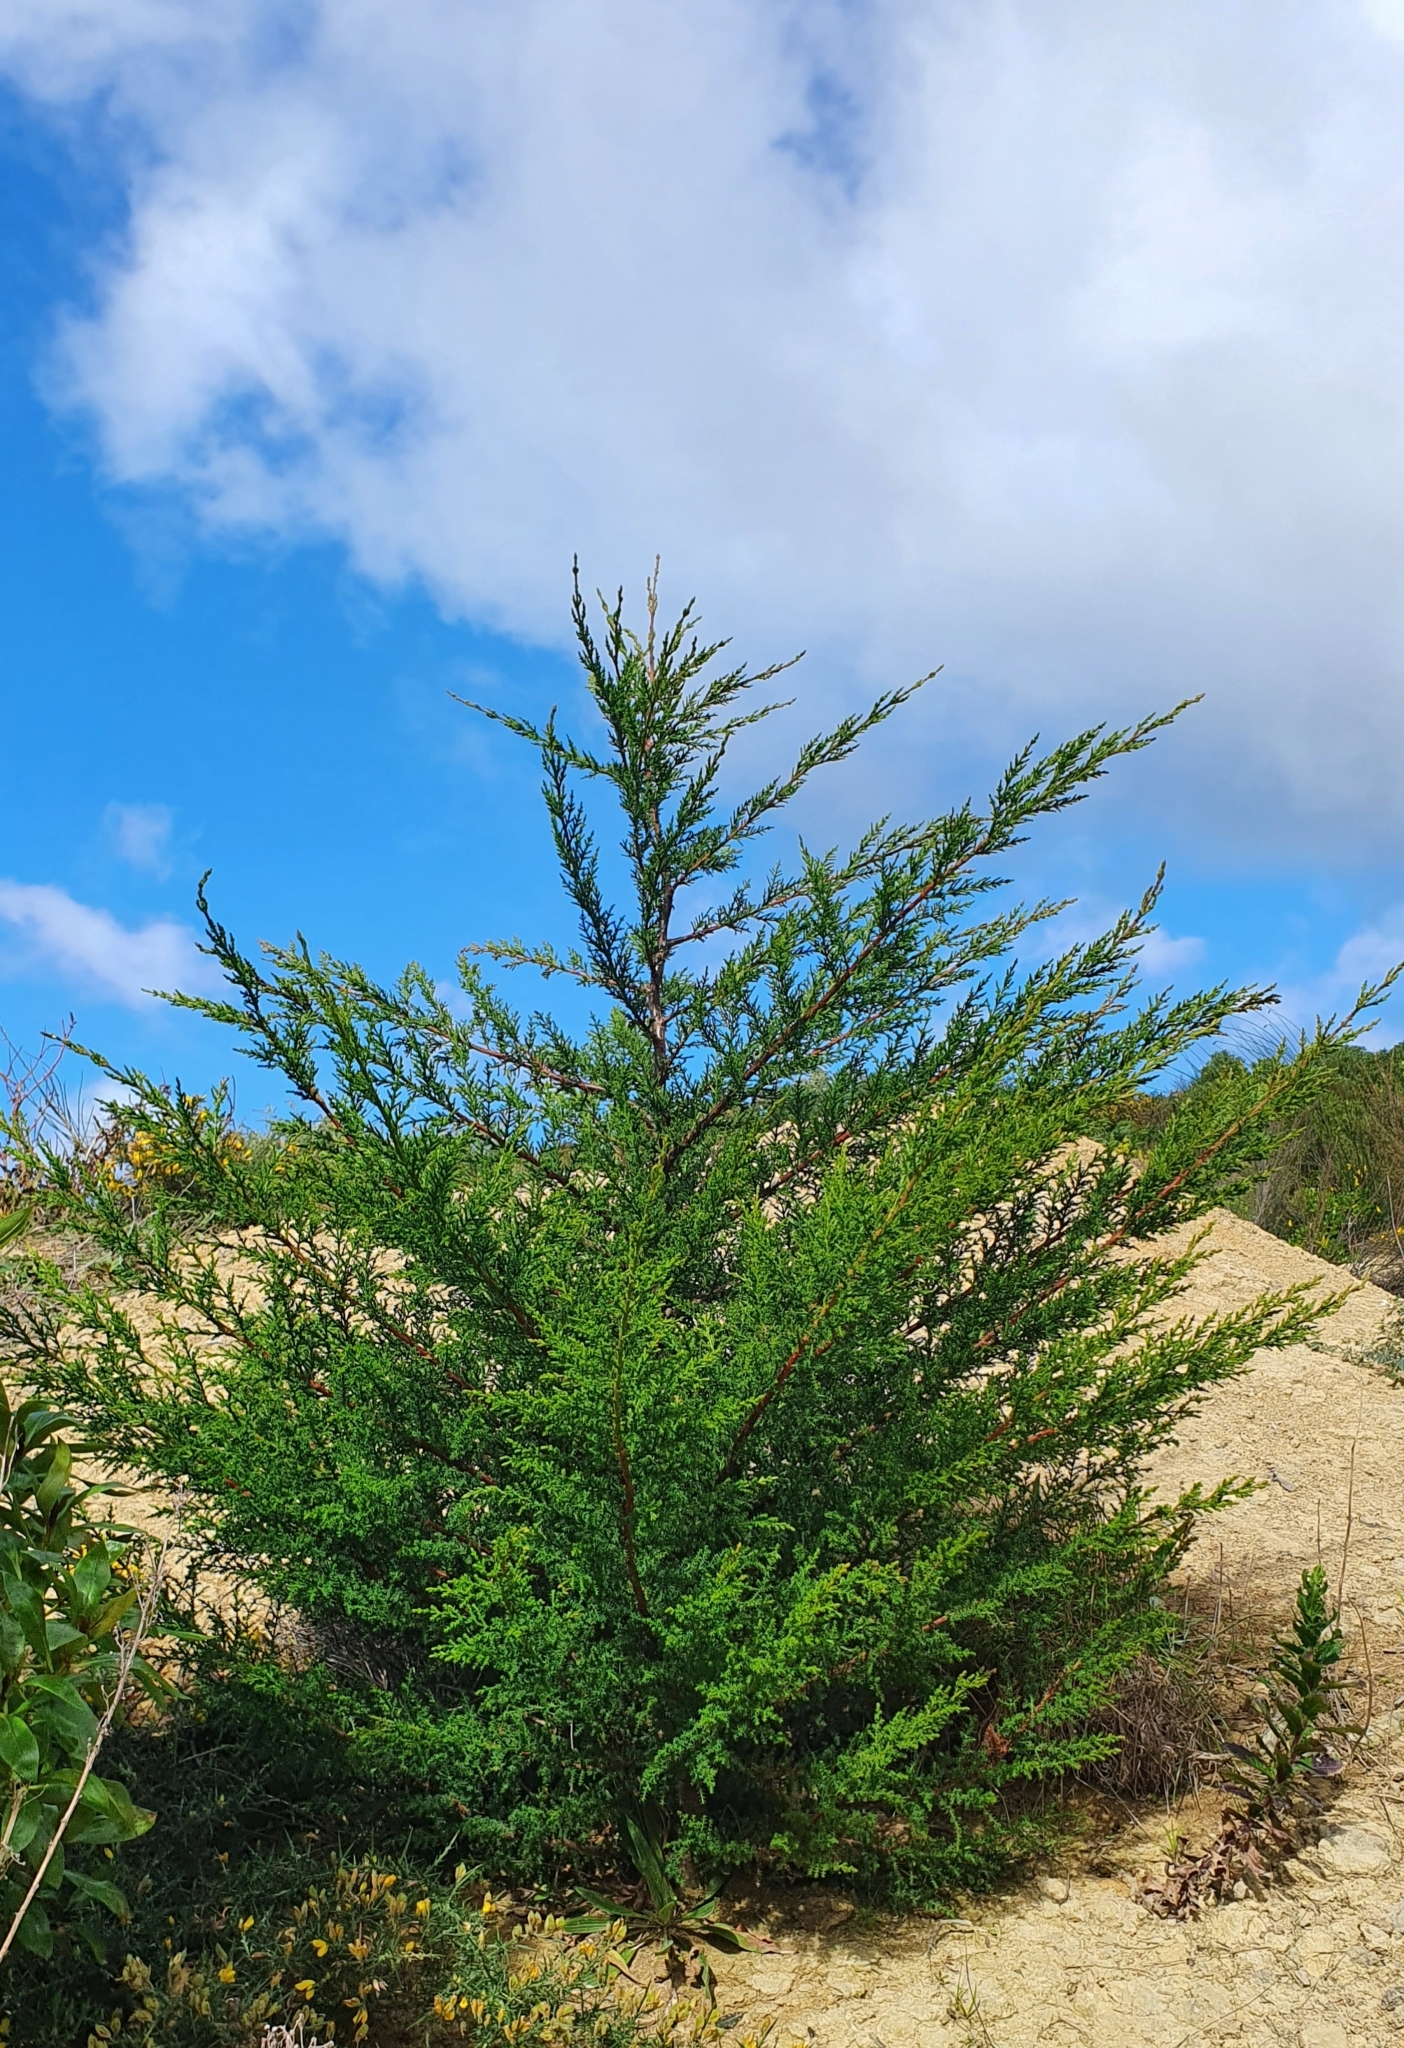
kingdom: Plantae
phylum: Tracheophyta
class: Pinopsida
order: Pinales
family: Cupressaceae
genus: Cupressus
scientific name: Cupressus macrocarpa
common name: Monterey cypress
